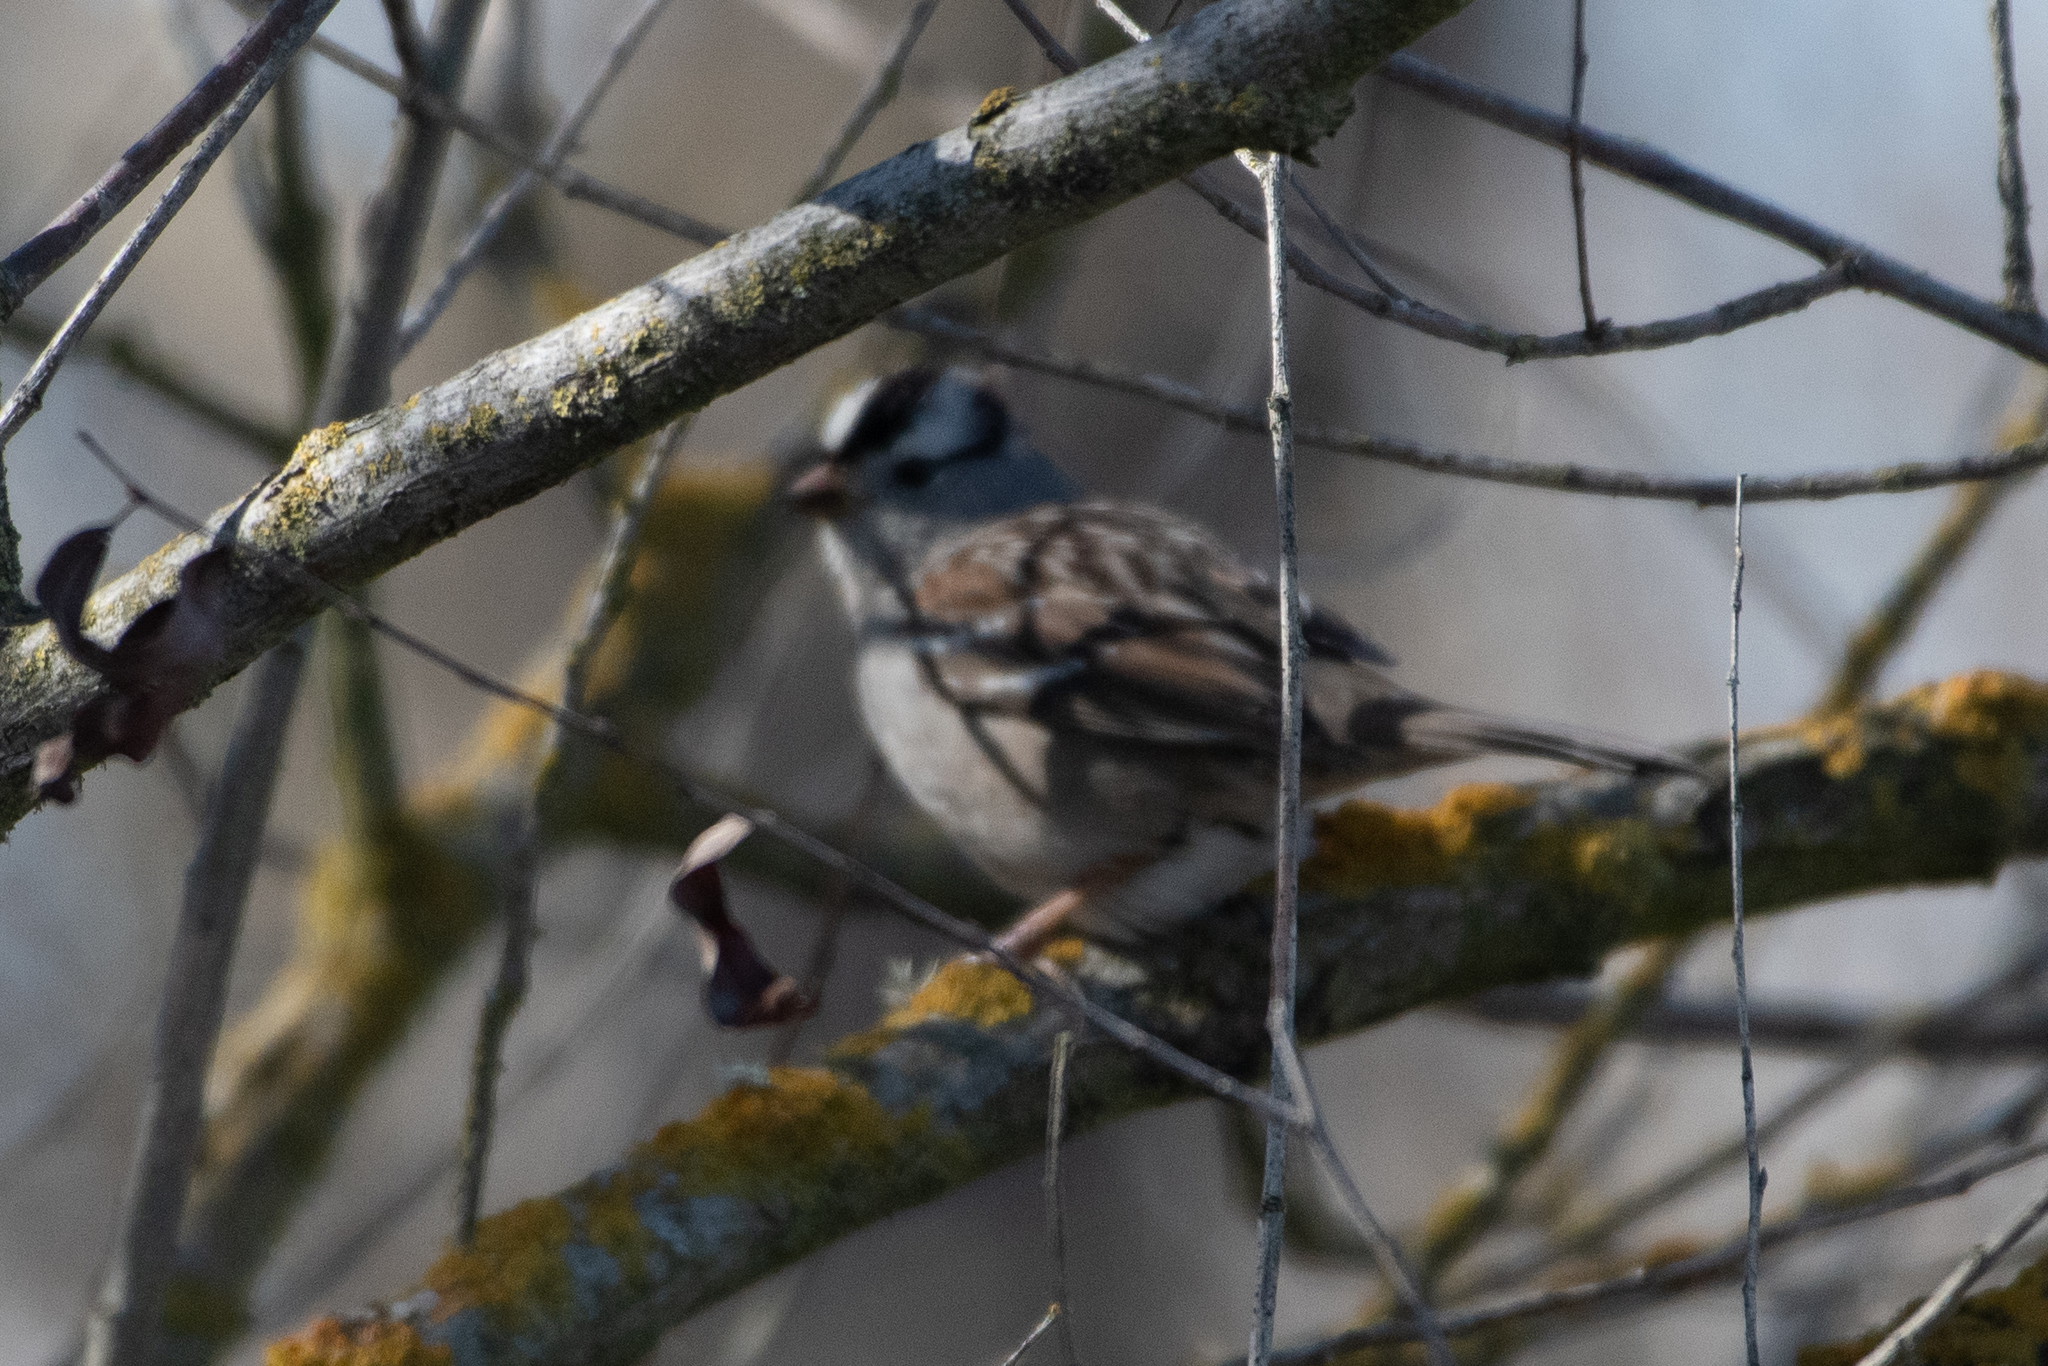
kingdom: Animalia
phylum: Chordata
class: Aves
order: Passeriformes
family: Passerellidae
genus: Zonotrichia
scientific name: Zonotrichia leucophrys
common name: White-crowned sparrow
